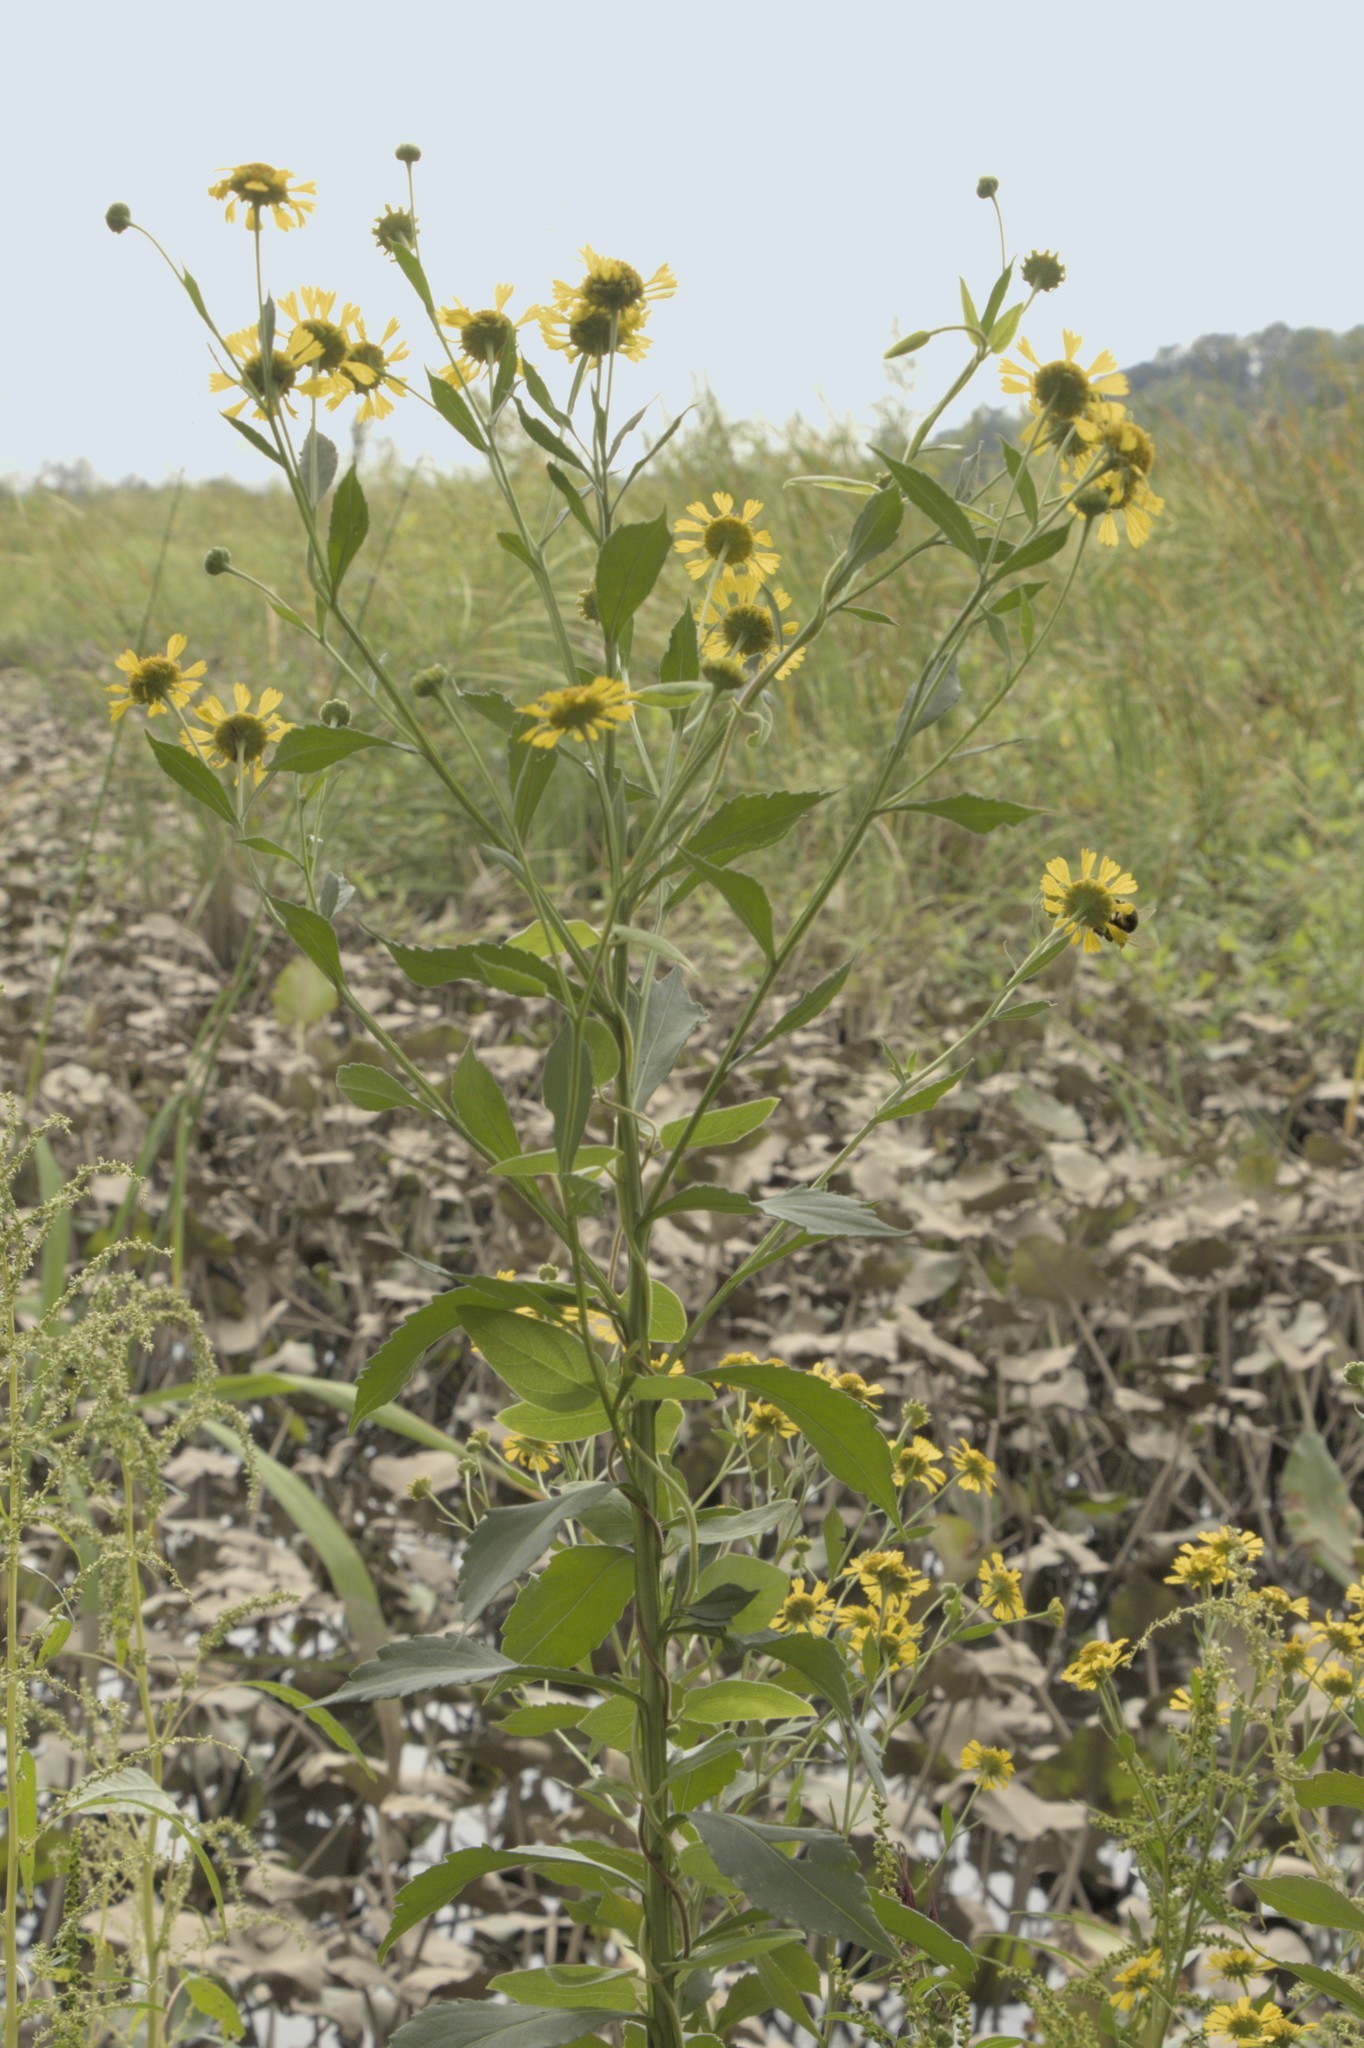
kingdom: Plantae
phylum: Tracheophyta
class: Magnoliopsida
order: Asterales
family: Asteraceae
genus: Helenium
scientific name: Helenium autumnale
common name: Sneezeweed
